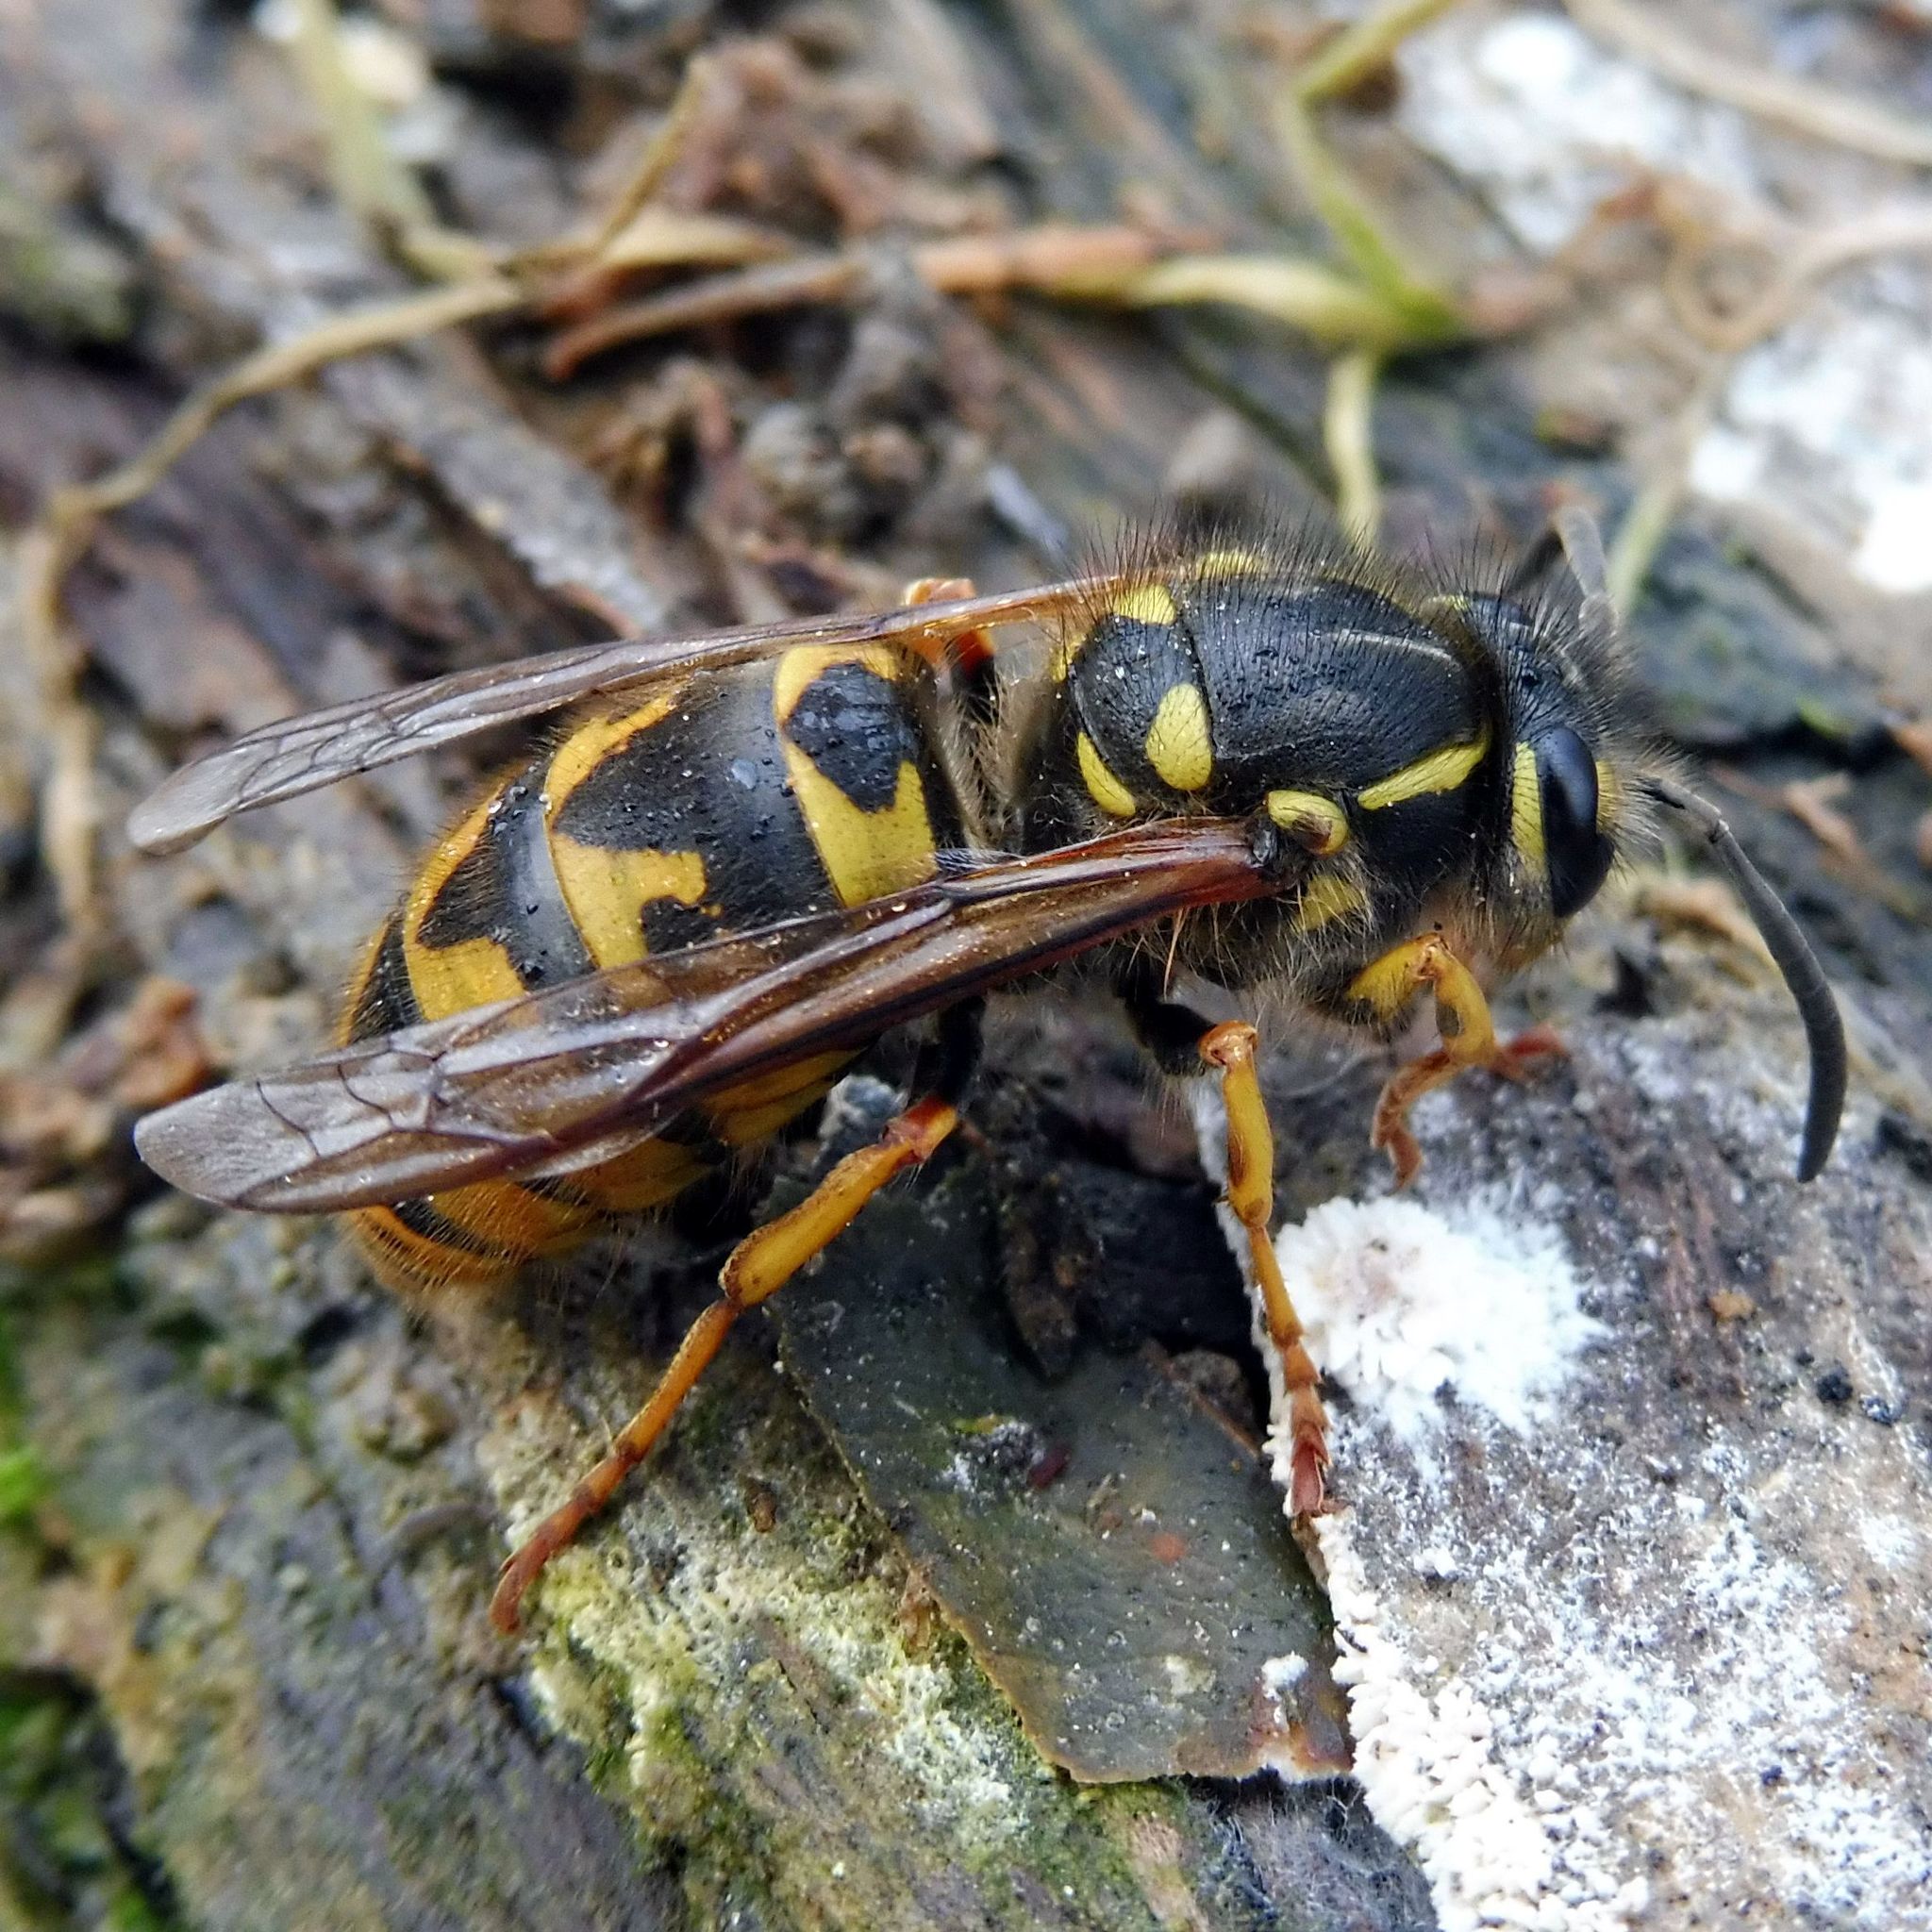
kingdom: Animalia
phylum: Arthropoda
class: Insecta
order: Hymenoptera
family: Vespidae
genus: Vespula
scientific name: Vespula germanica
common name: German wasp
